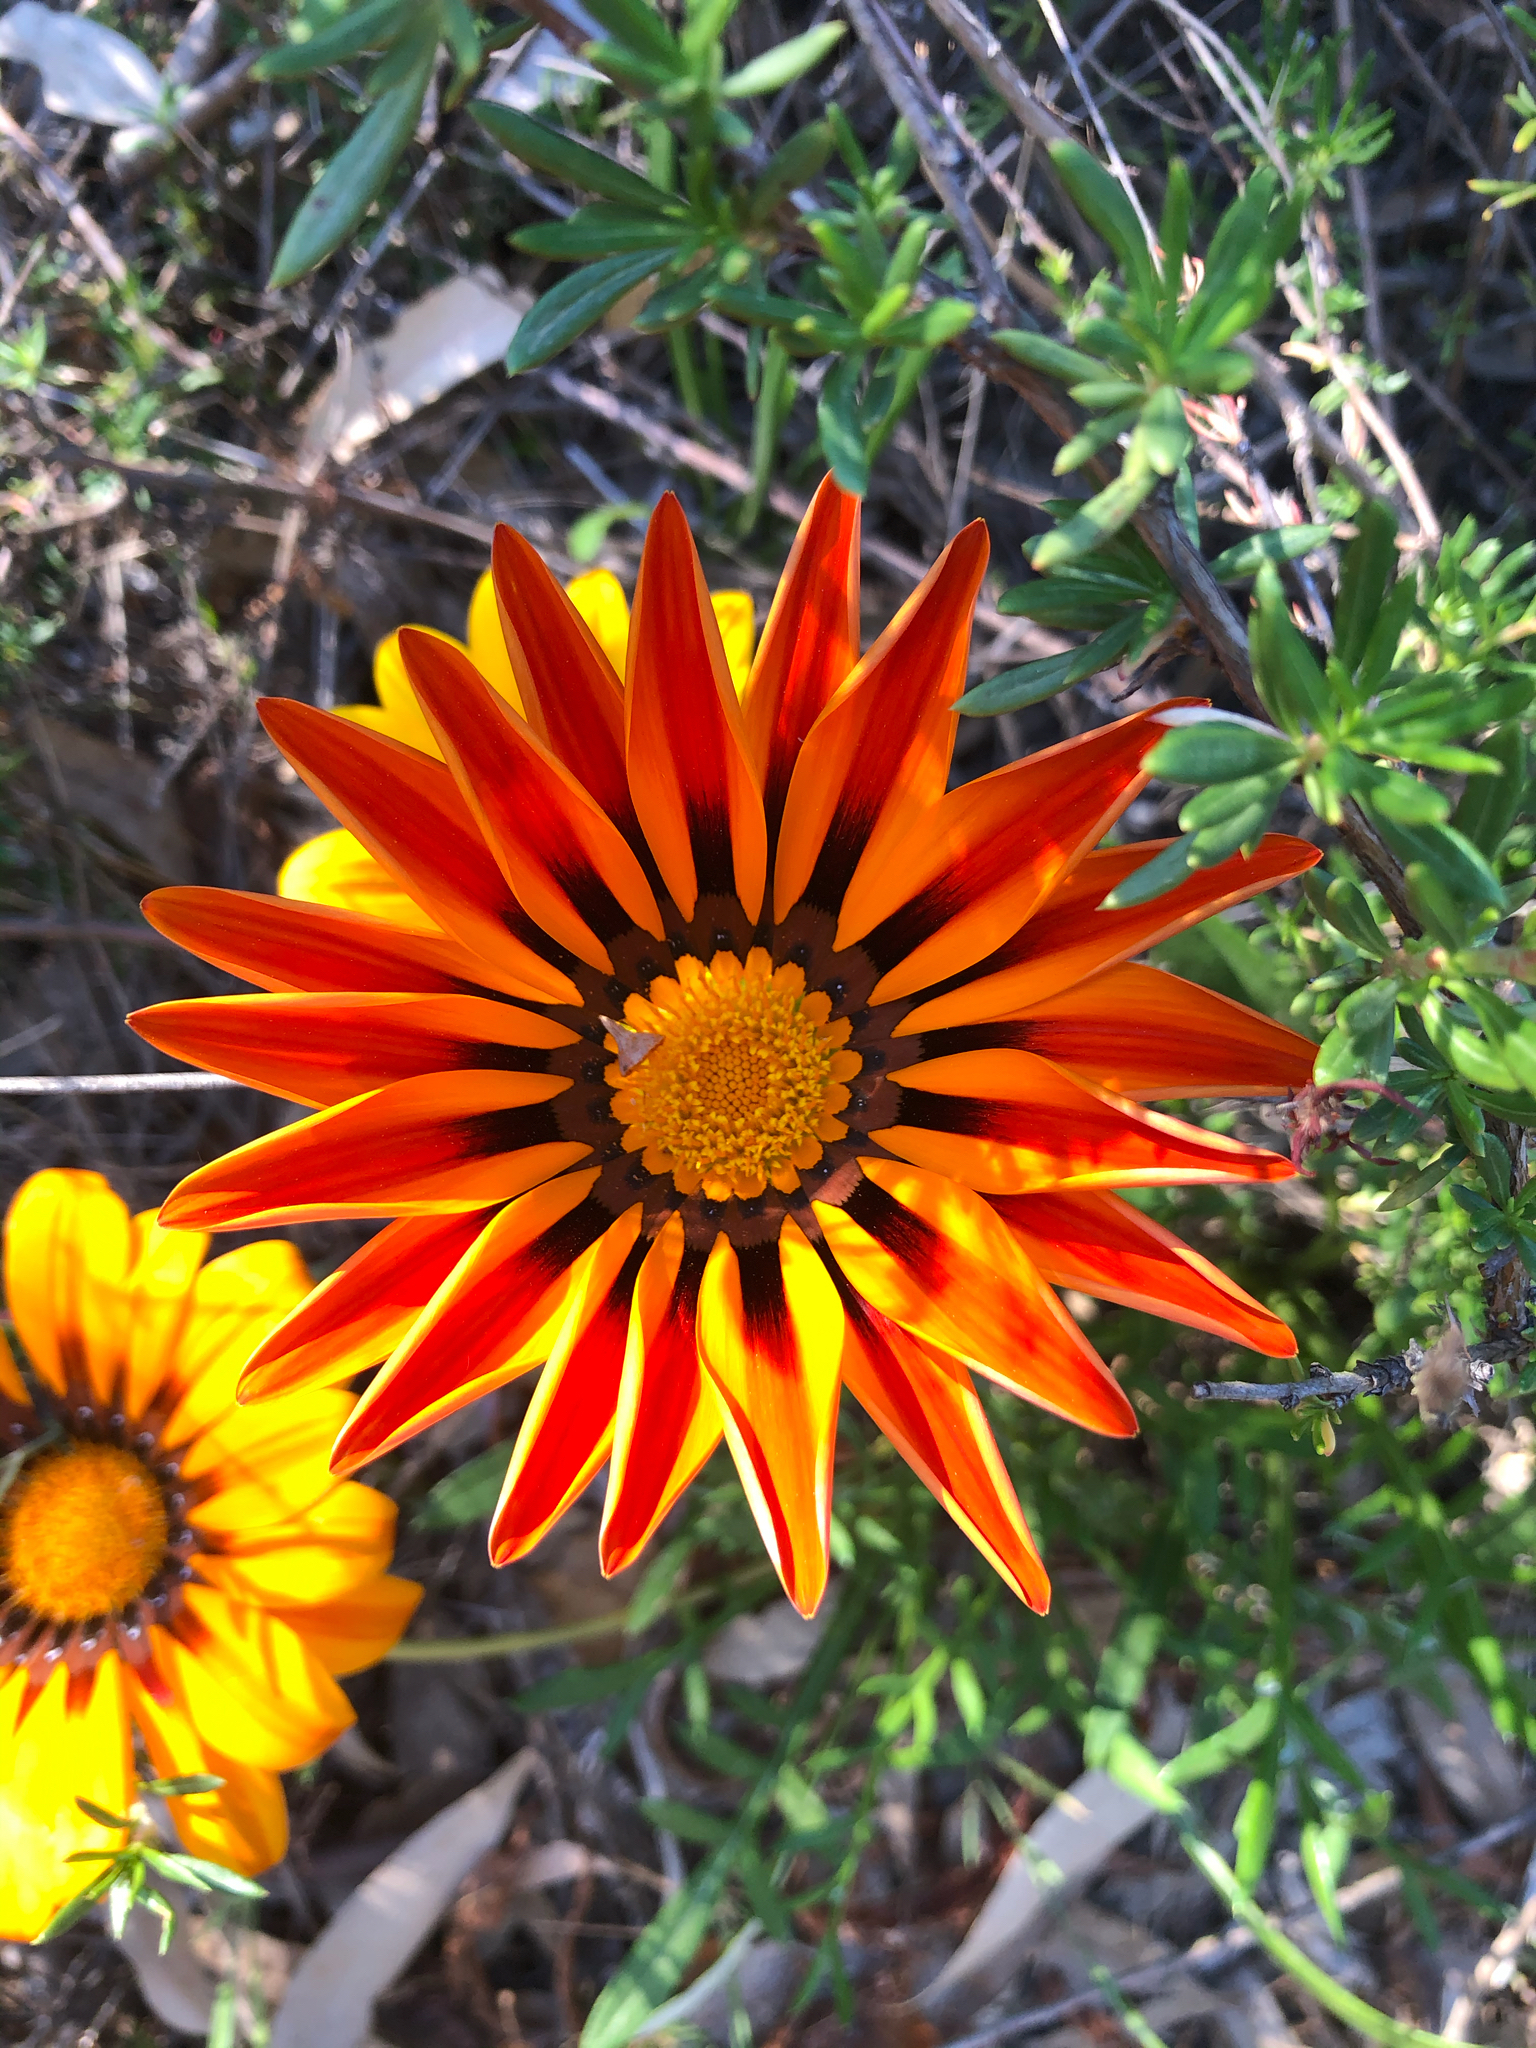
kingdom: Plantae
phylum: Tracheophyta
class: Magnoliopsida
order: Asterales
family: Asteraceae
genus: Gazania
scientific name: Gazania splendens
